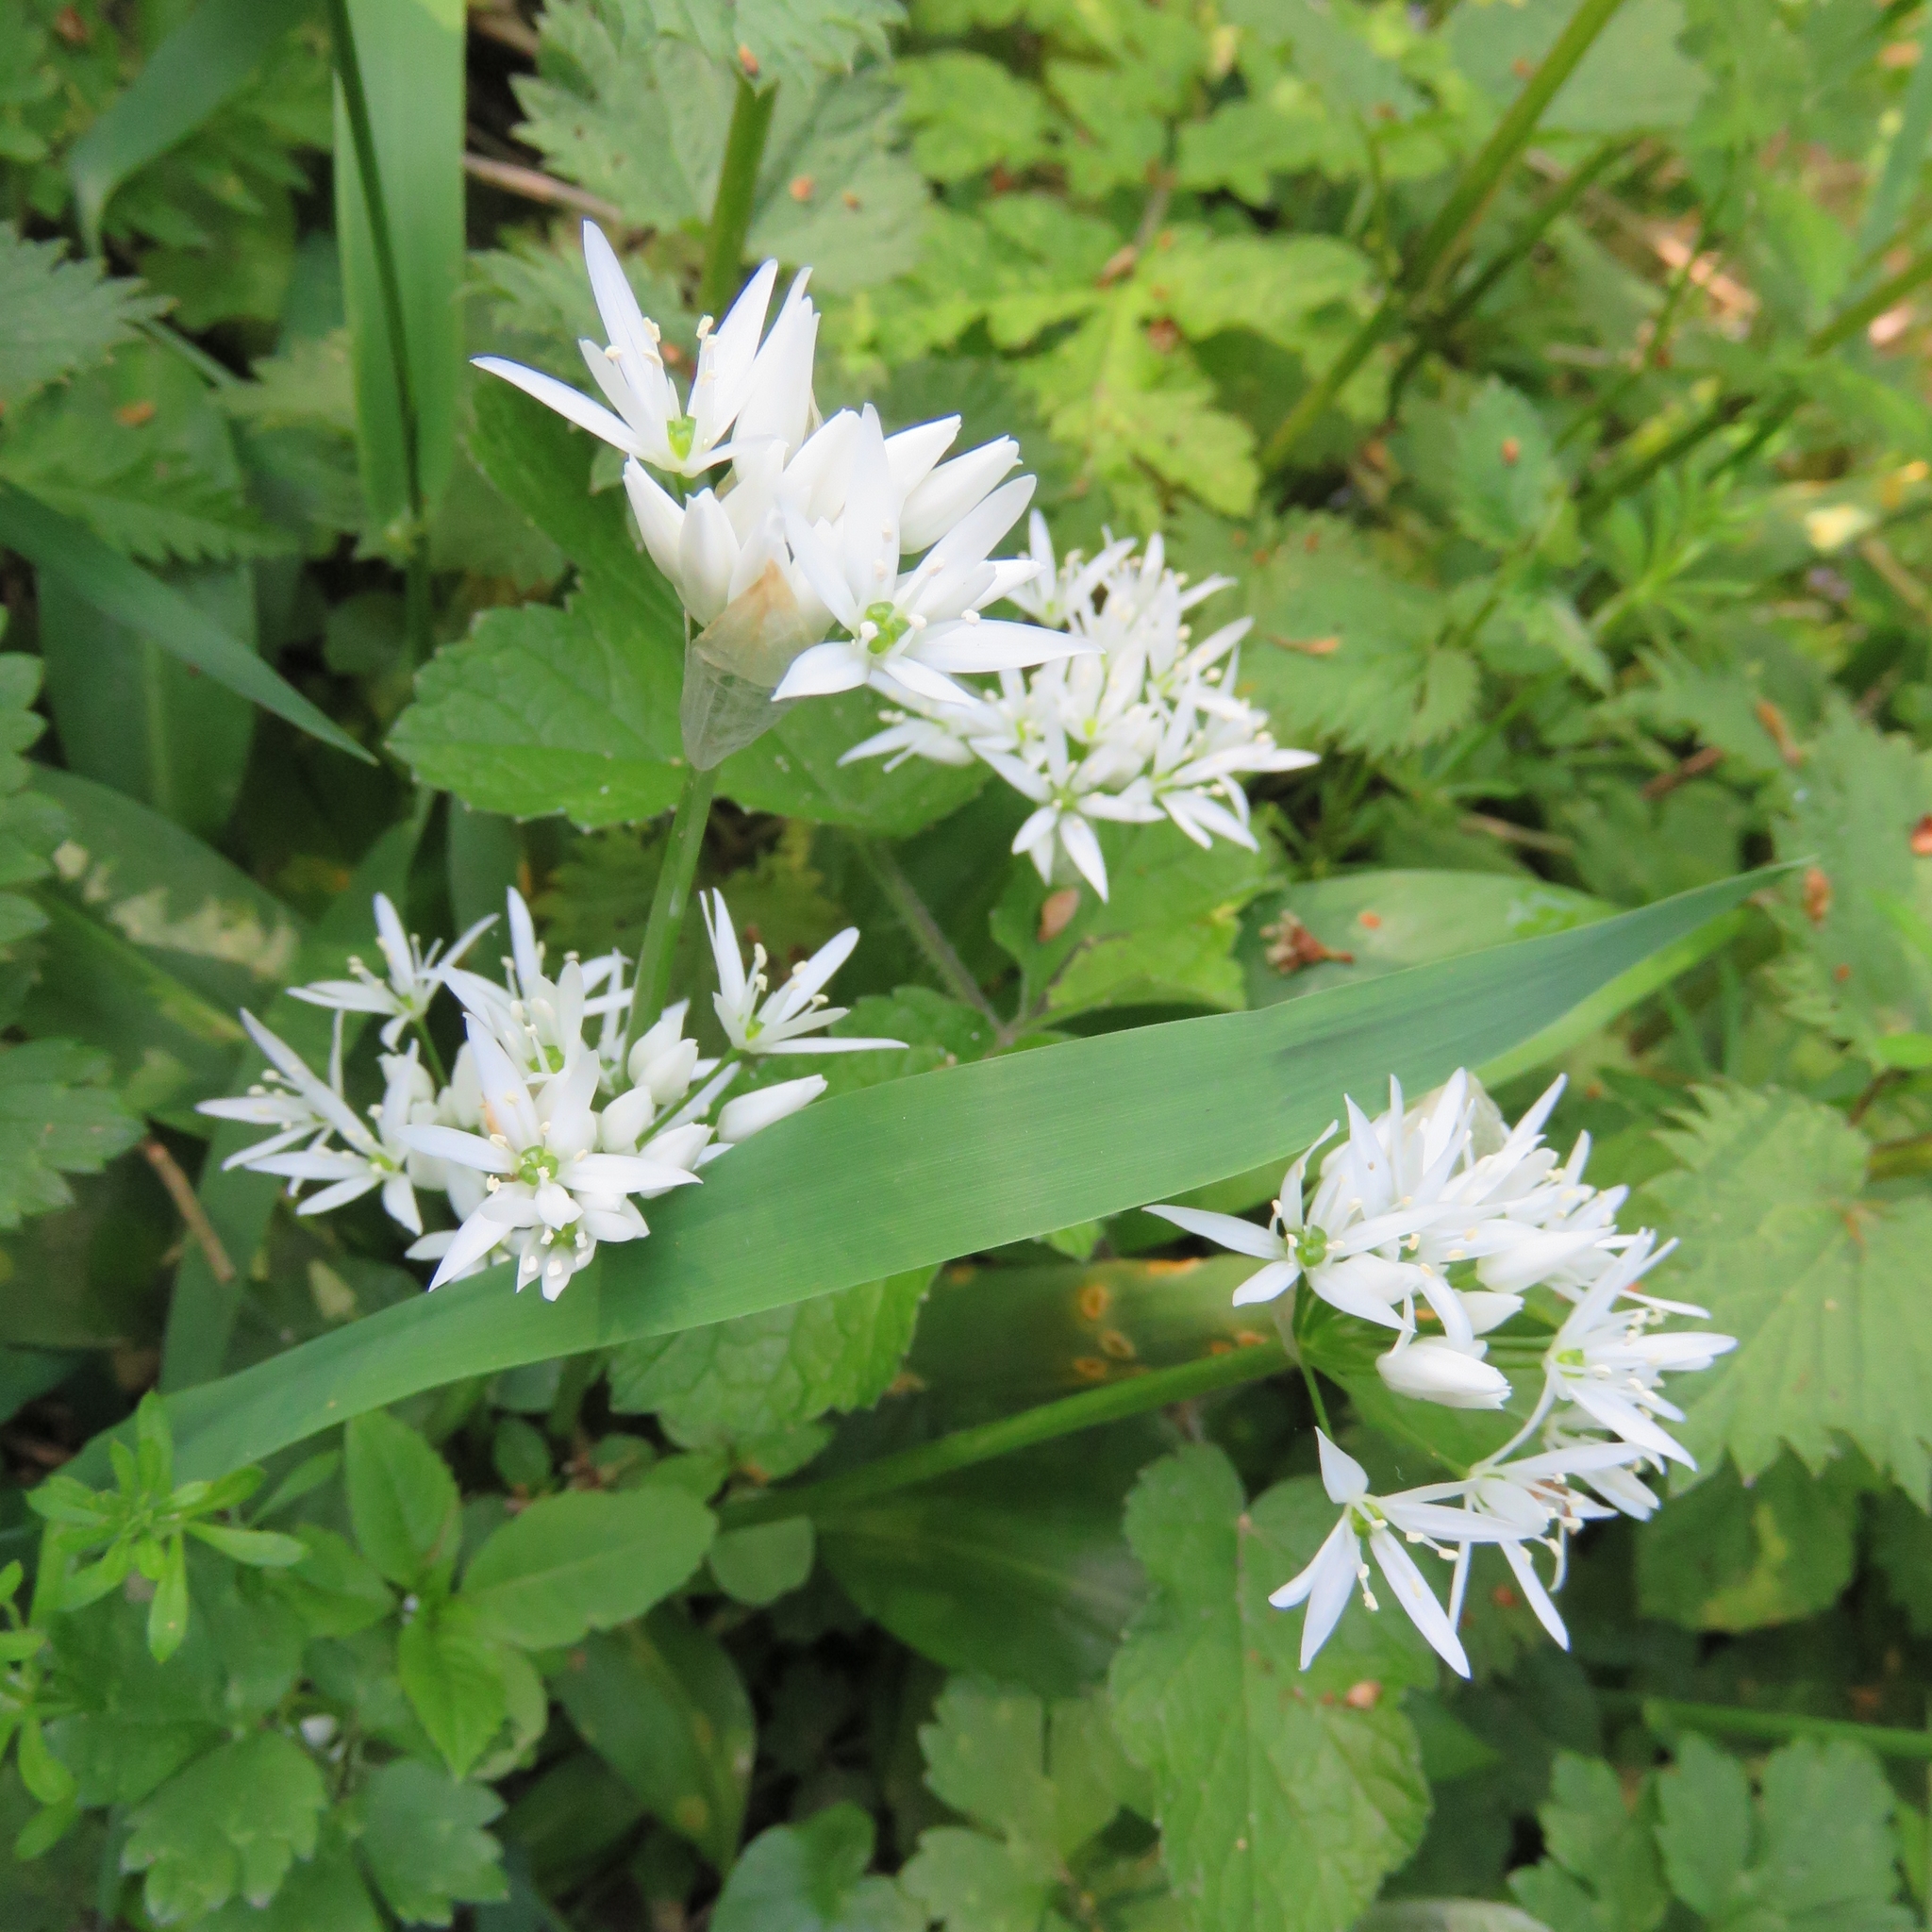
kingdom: Plantae
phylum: Tracheophyta
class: Liliopsida
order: Asparagales
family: Amaryllidaceae
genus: Allium
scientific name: Allium ursinum
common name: Ramsons
